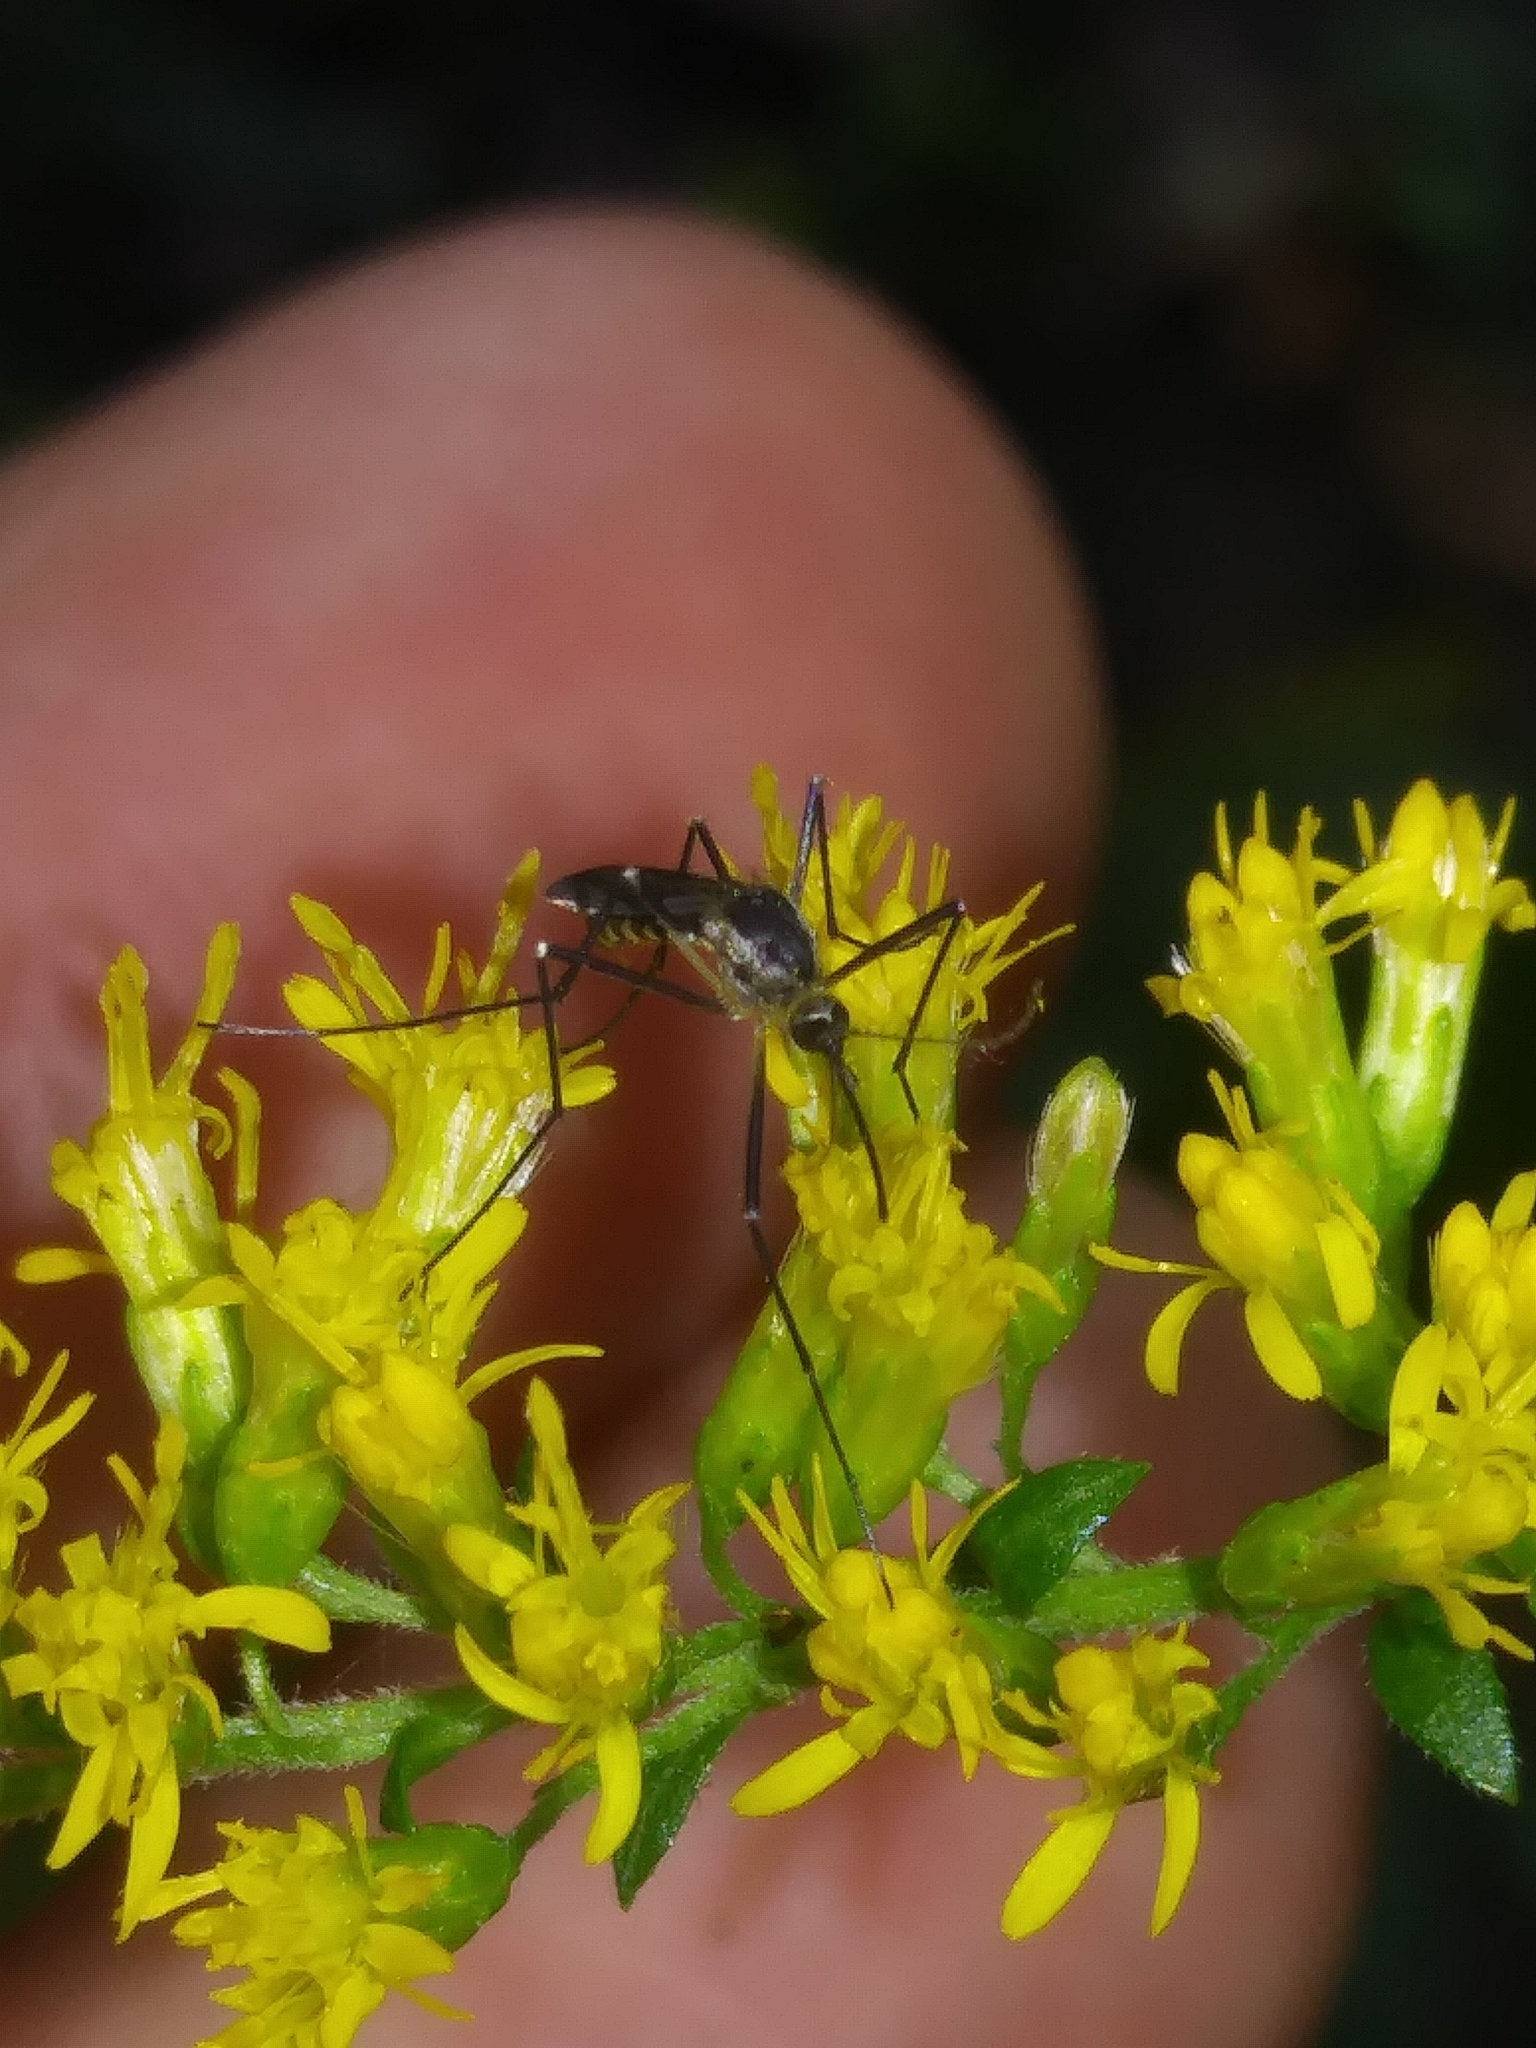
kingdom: Animalia
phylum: Arthropoda
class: Insecta
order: Diptera
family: Culicidae
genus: Aedes
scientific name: Aedes triseriatus
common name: Eastern treehole mosquito
